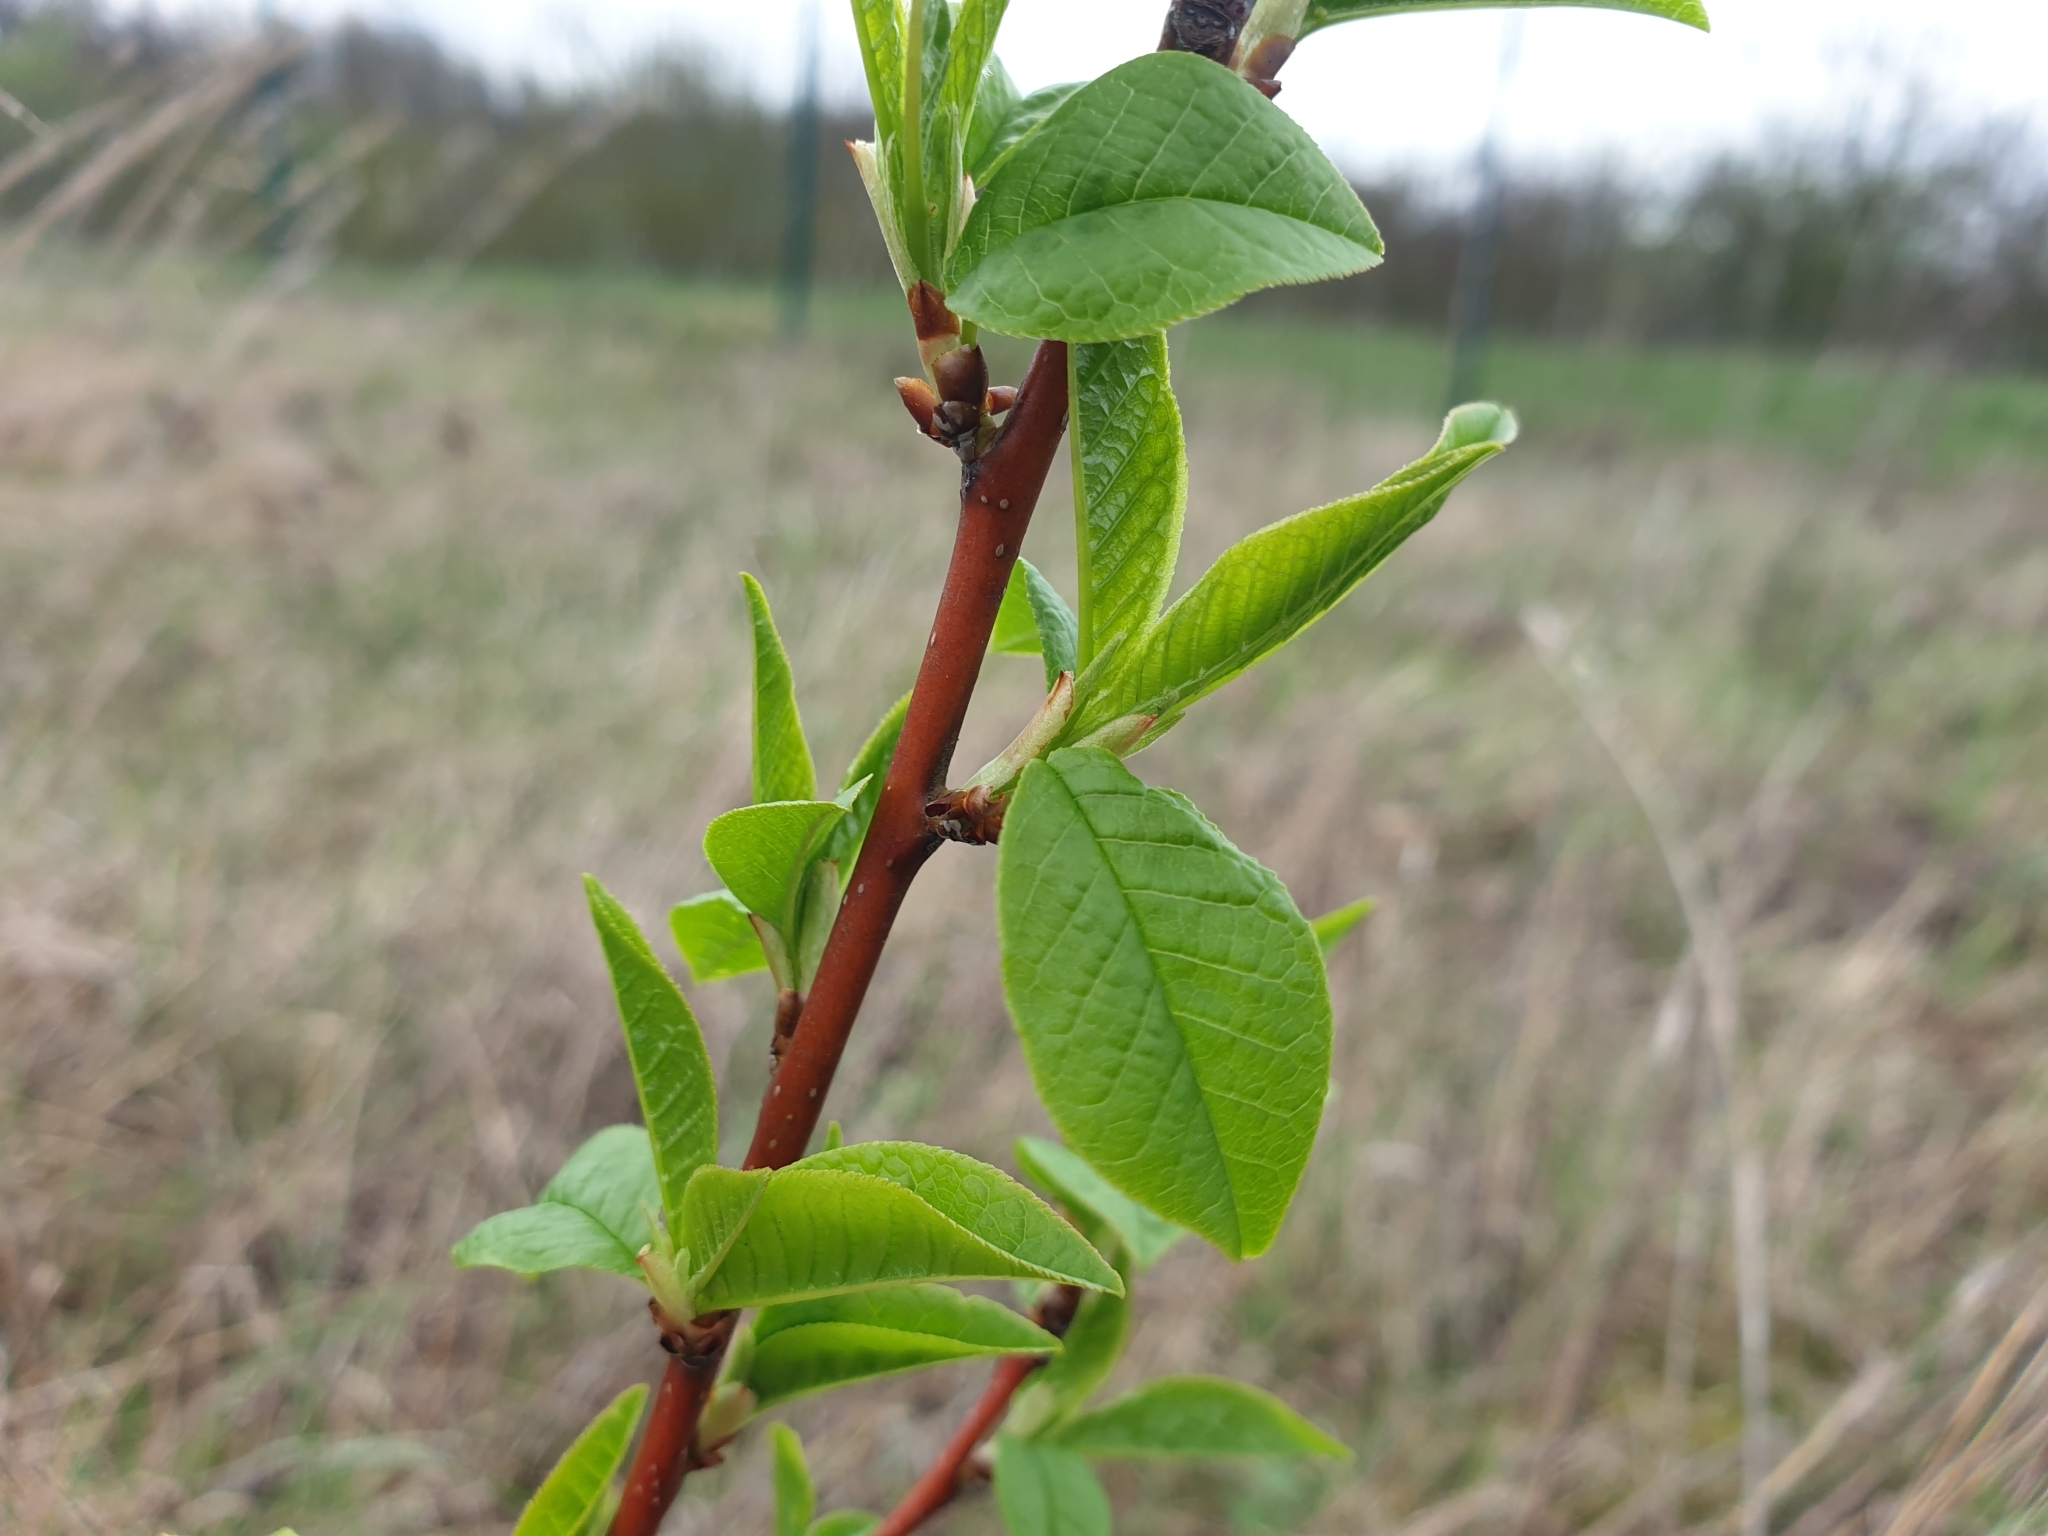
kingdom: Plantae
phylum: Tracheophyta
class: Magnoliopsida
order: Rosales
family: Rosaceae
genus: Prunus
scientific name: Prunus padus
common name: Bird cherry
